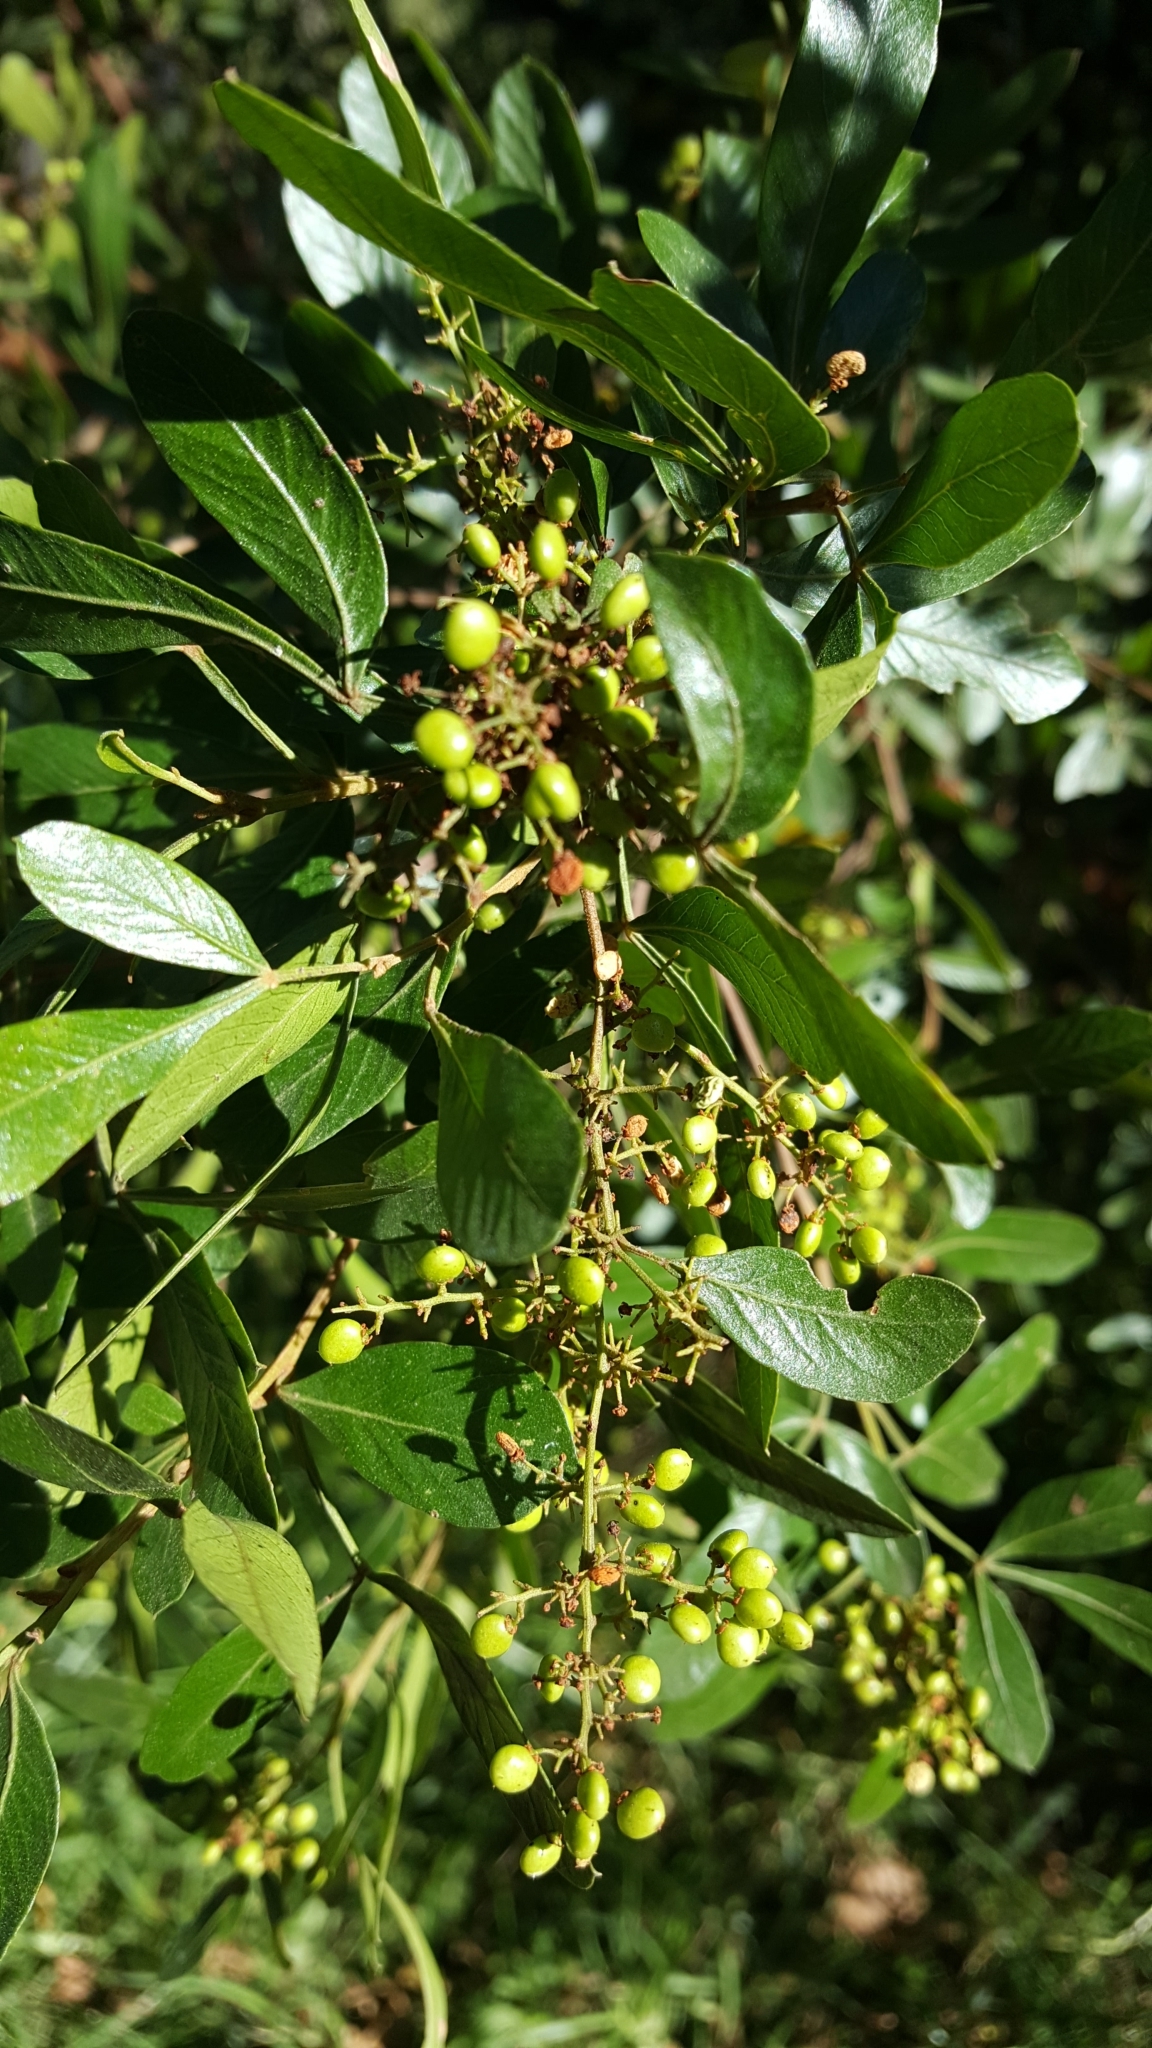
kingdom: Plantae
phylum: Tracheophyta
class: Magnoliopsida
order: Sapindales
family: Anacardiaceae
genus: Searsia
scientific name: Searsia pallens
